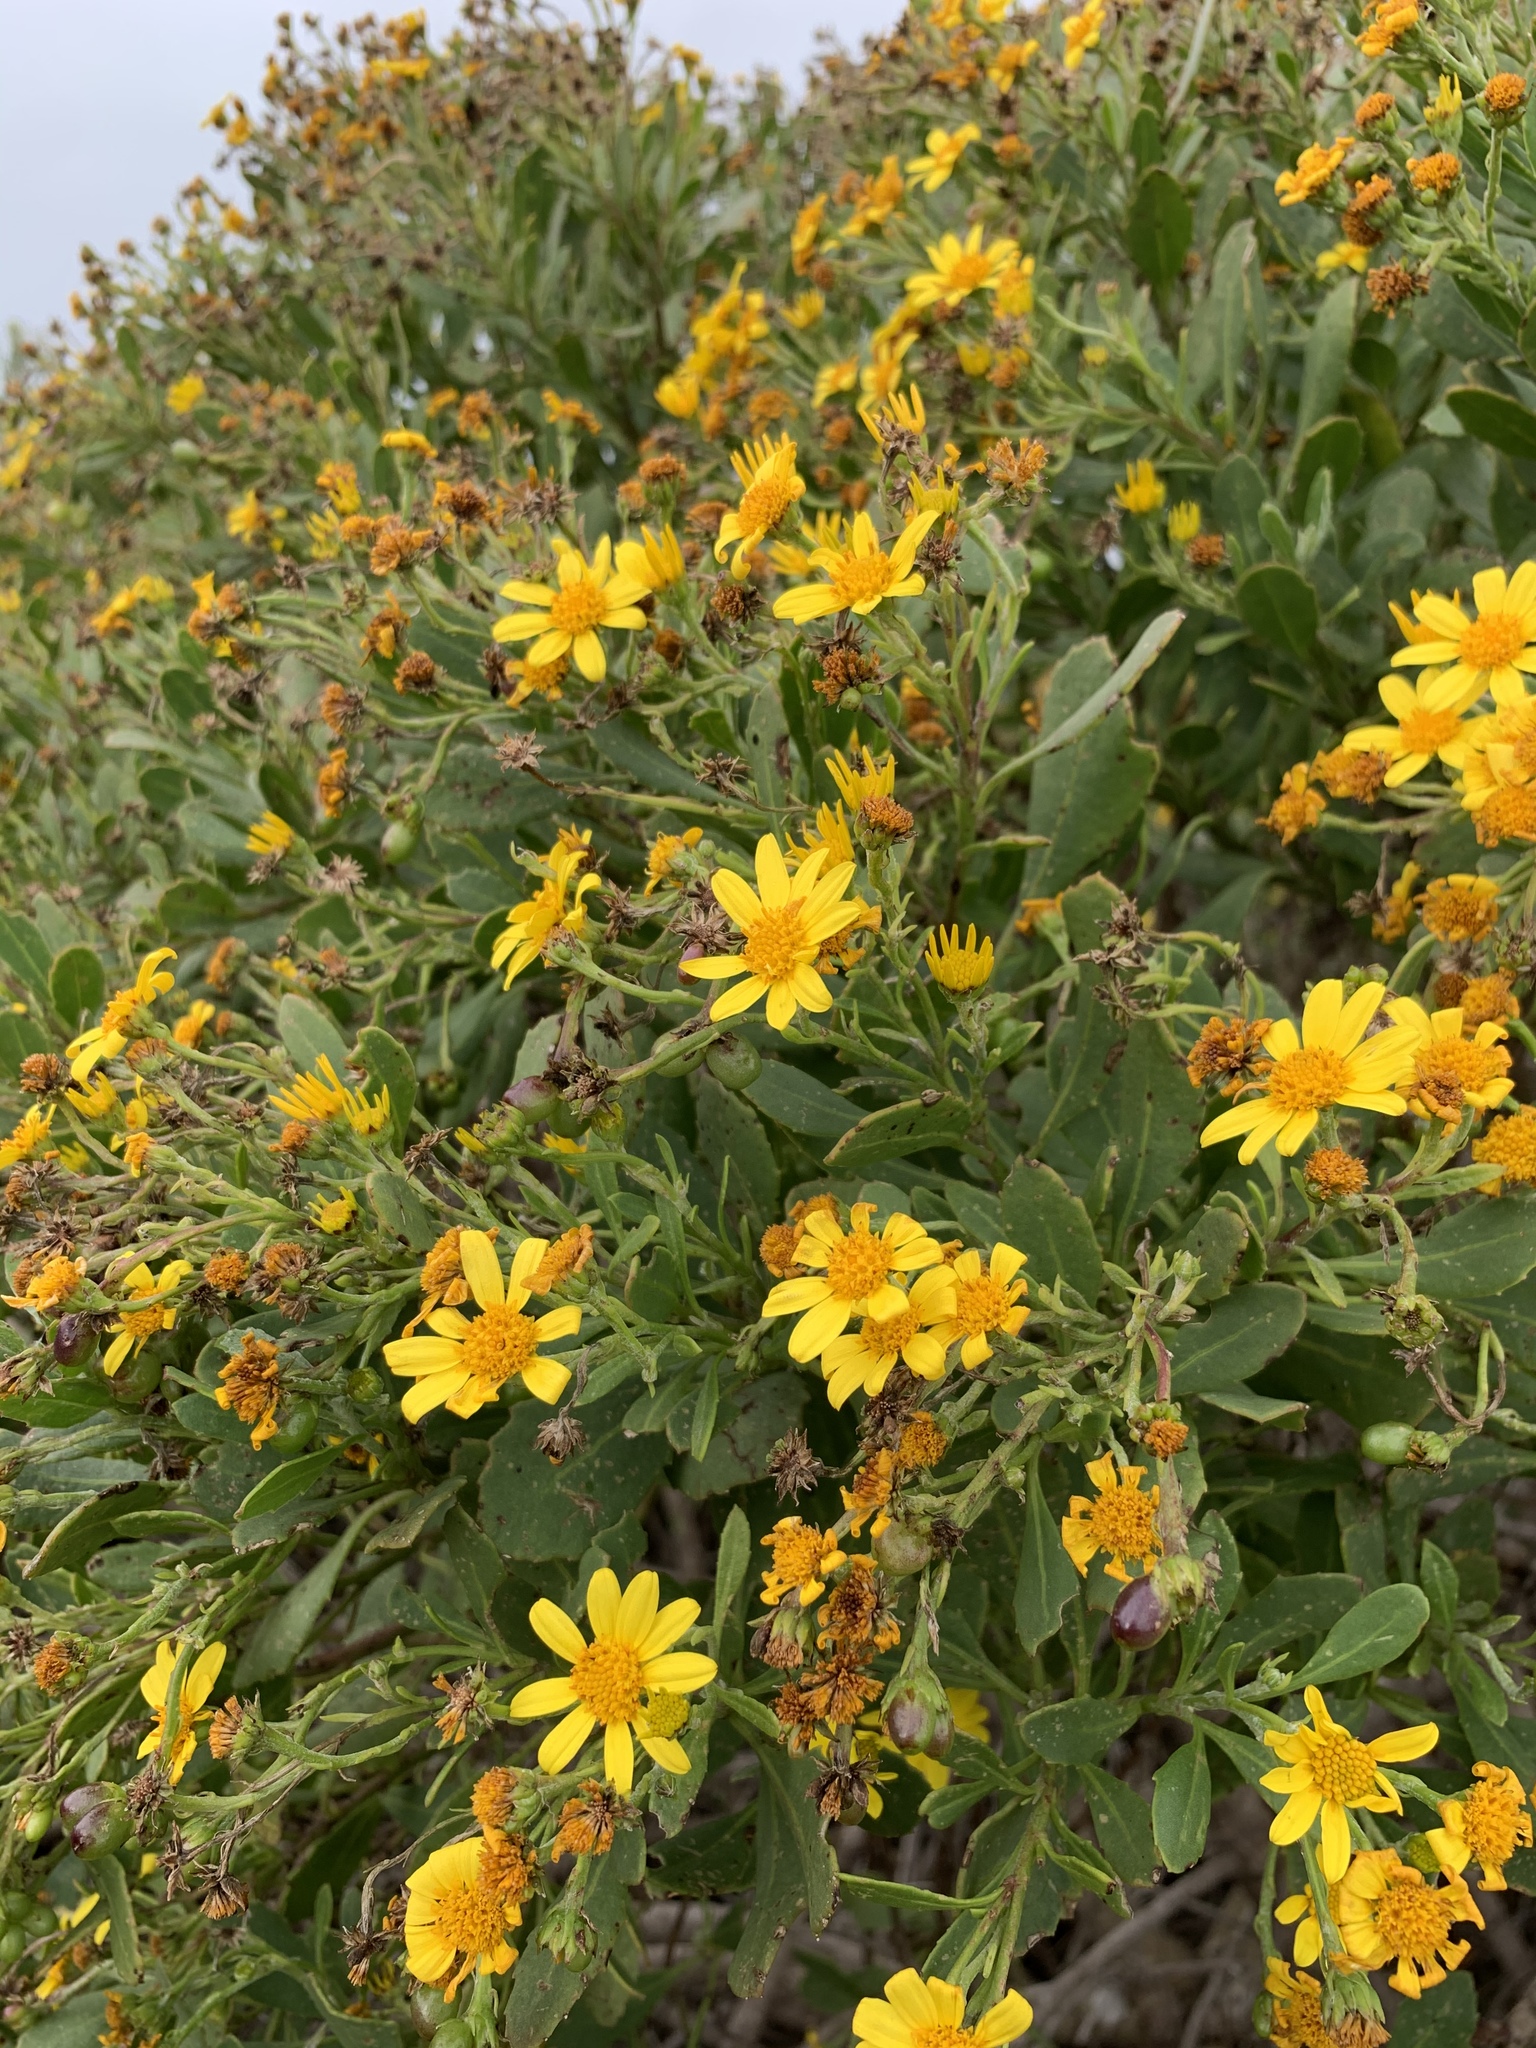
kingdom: Plantae
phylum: Tracheophyta
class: Magnoliopsida
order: Asterales
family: Asteraceae
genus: Osteospermum
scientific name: Osteospermum moniliferum
